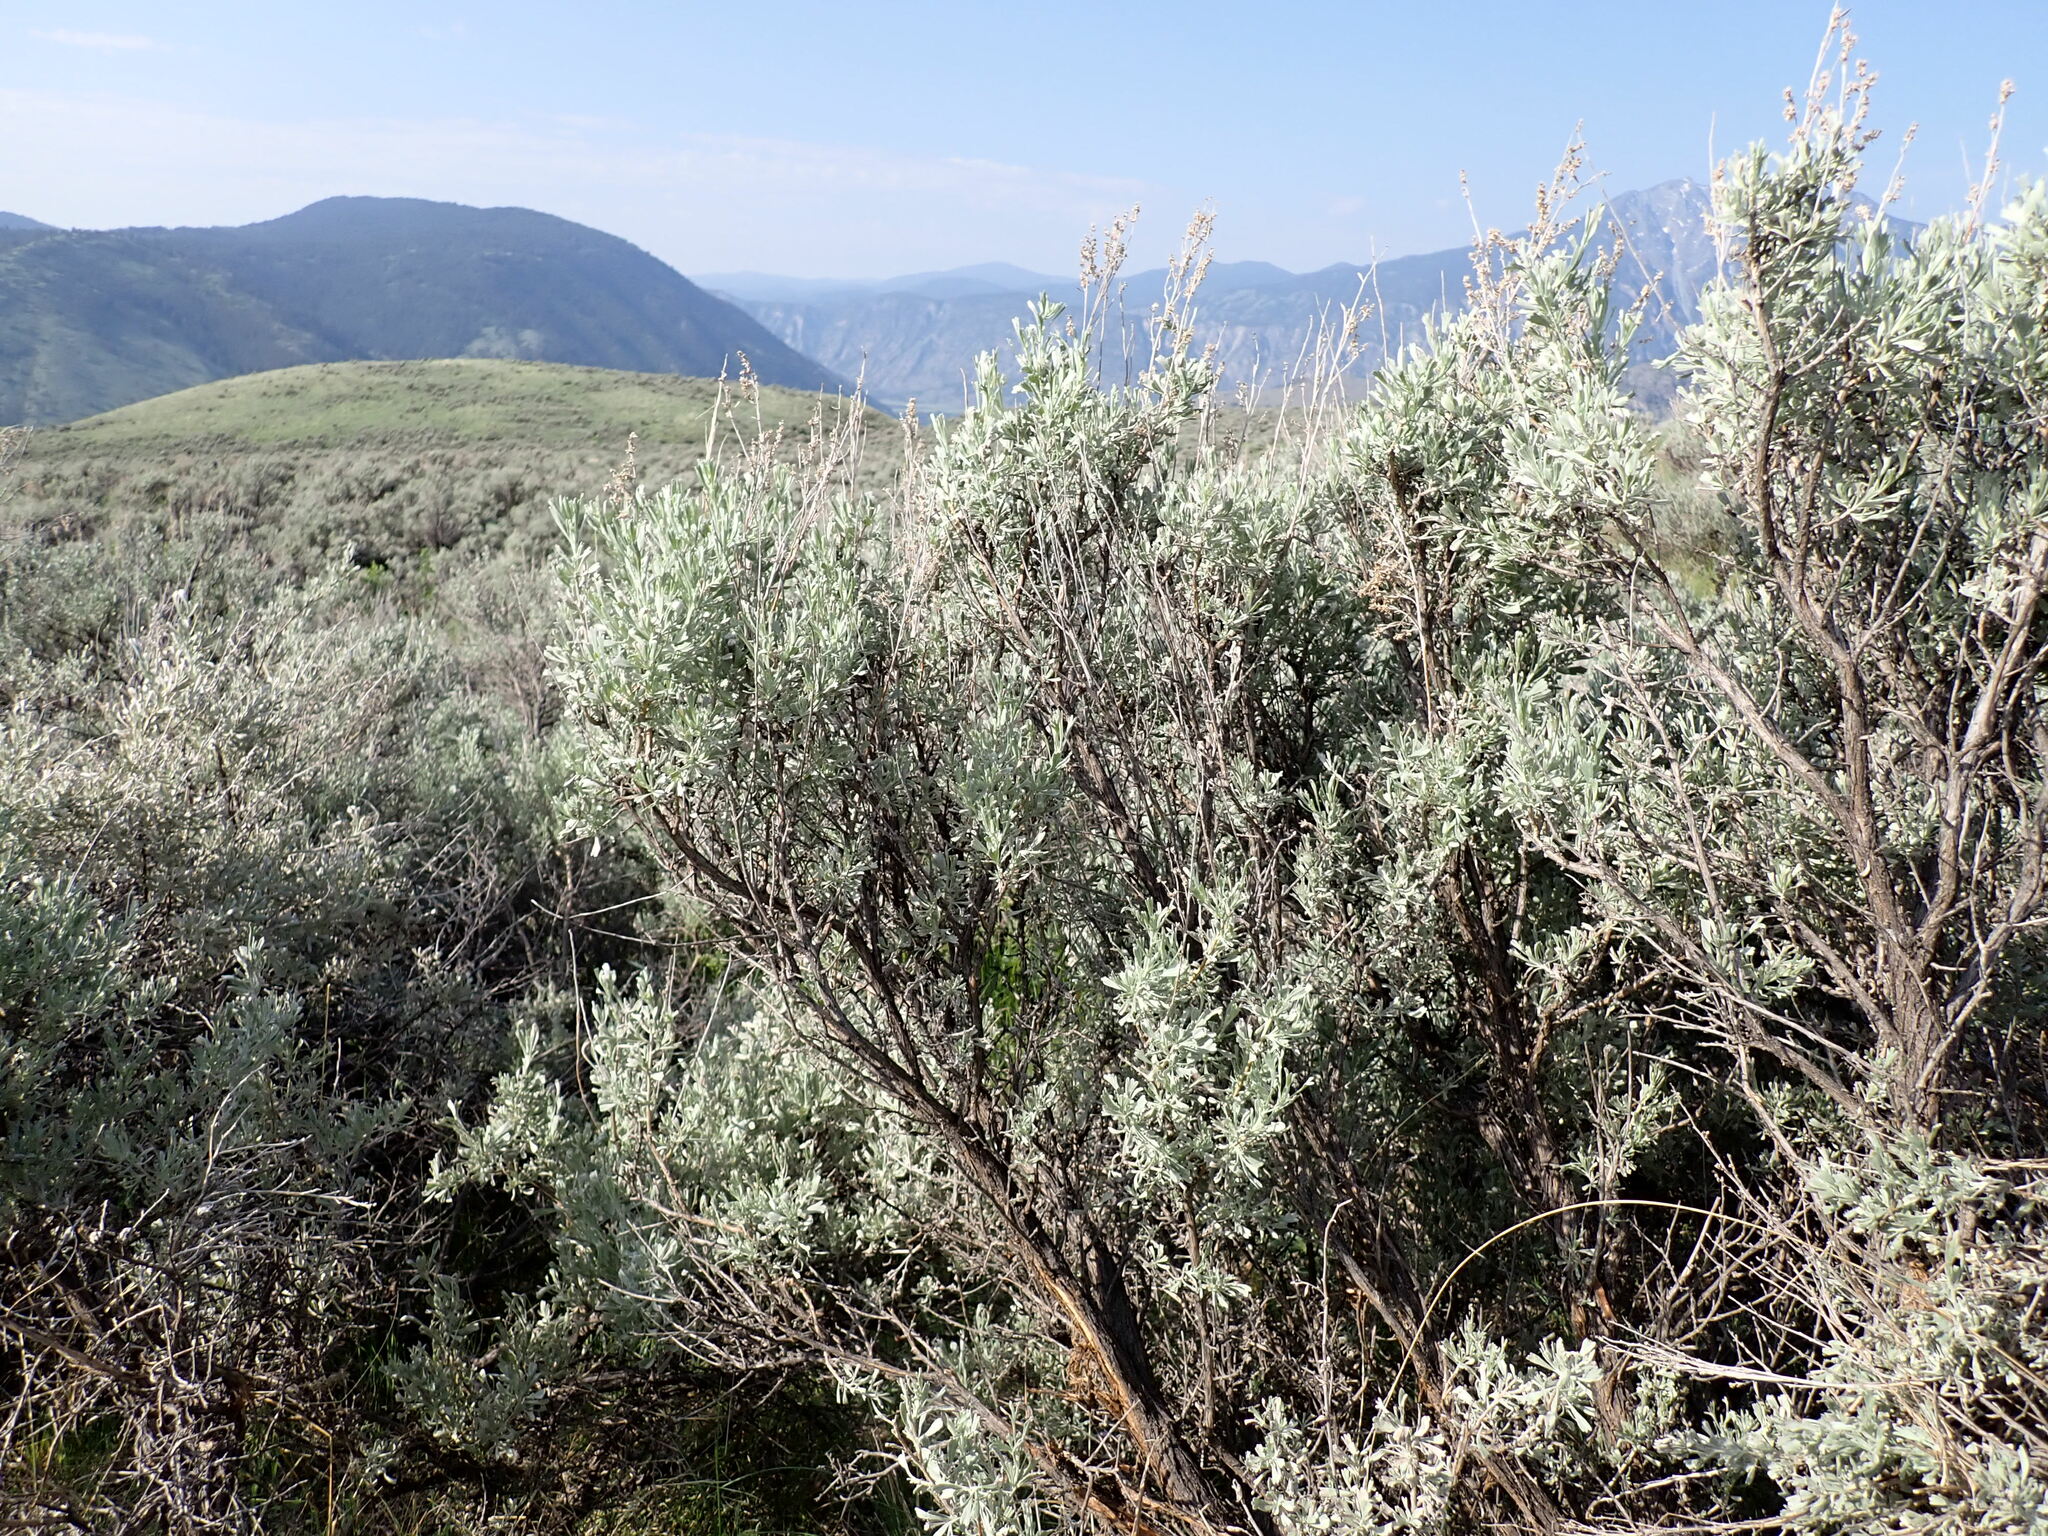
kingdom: Plantae
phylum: Tracheophyta
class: Magnoliopsida
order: Asterales
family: Asteraceae
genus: Artemisia
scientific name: Artemisia tridentata
